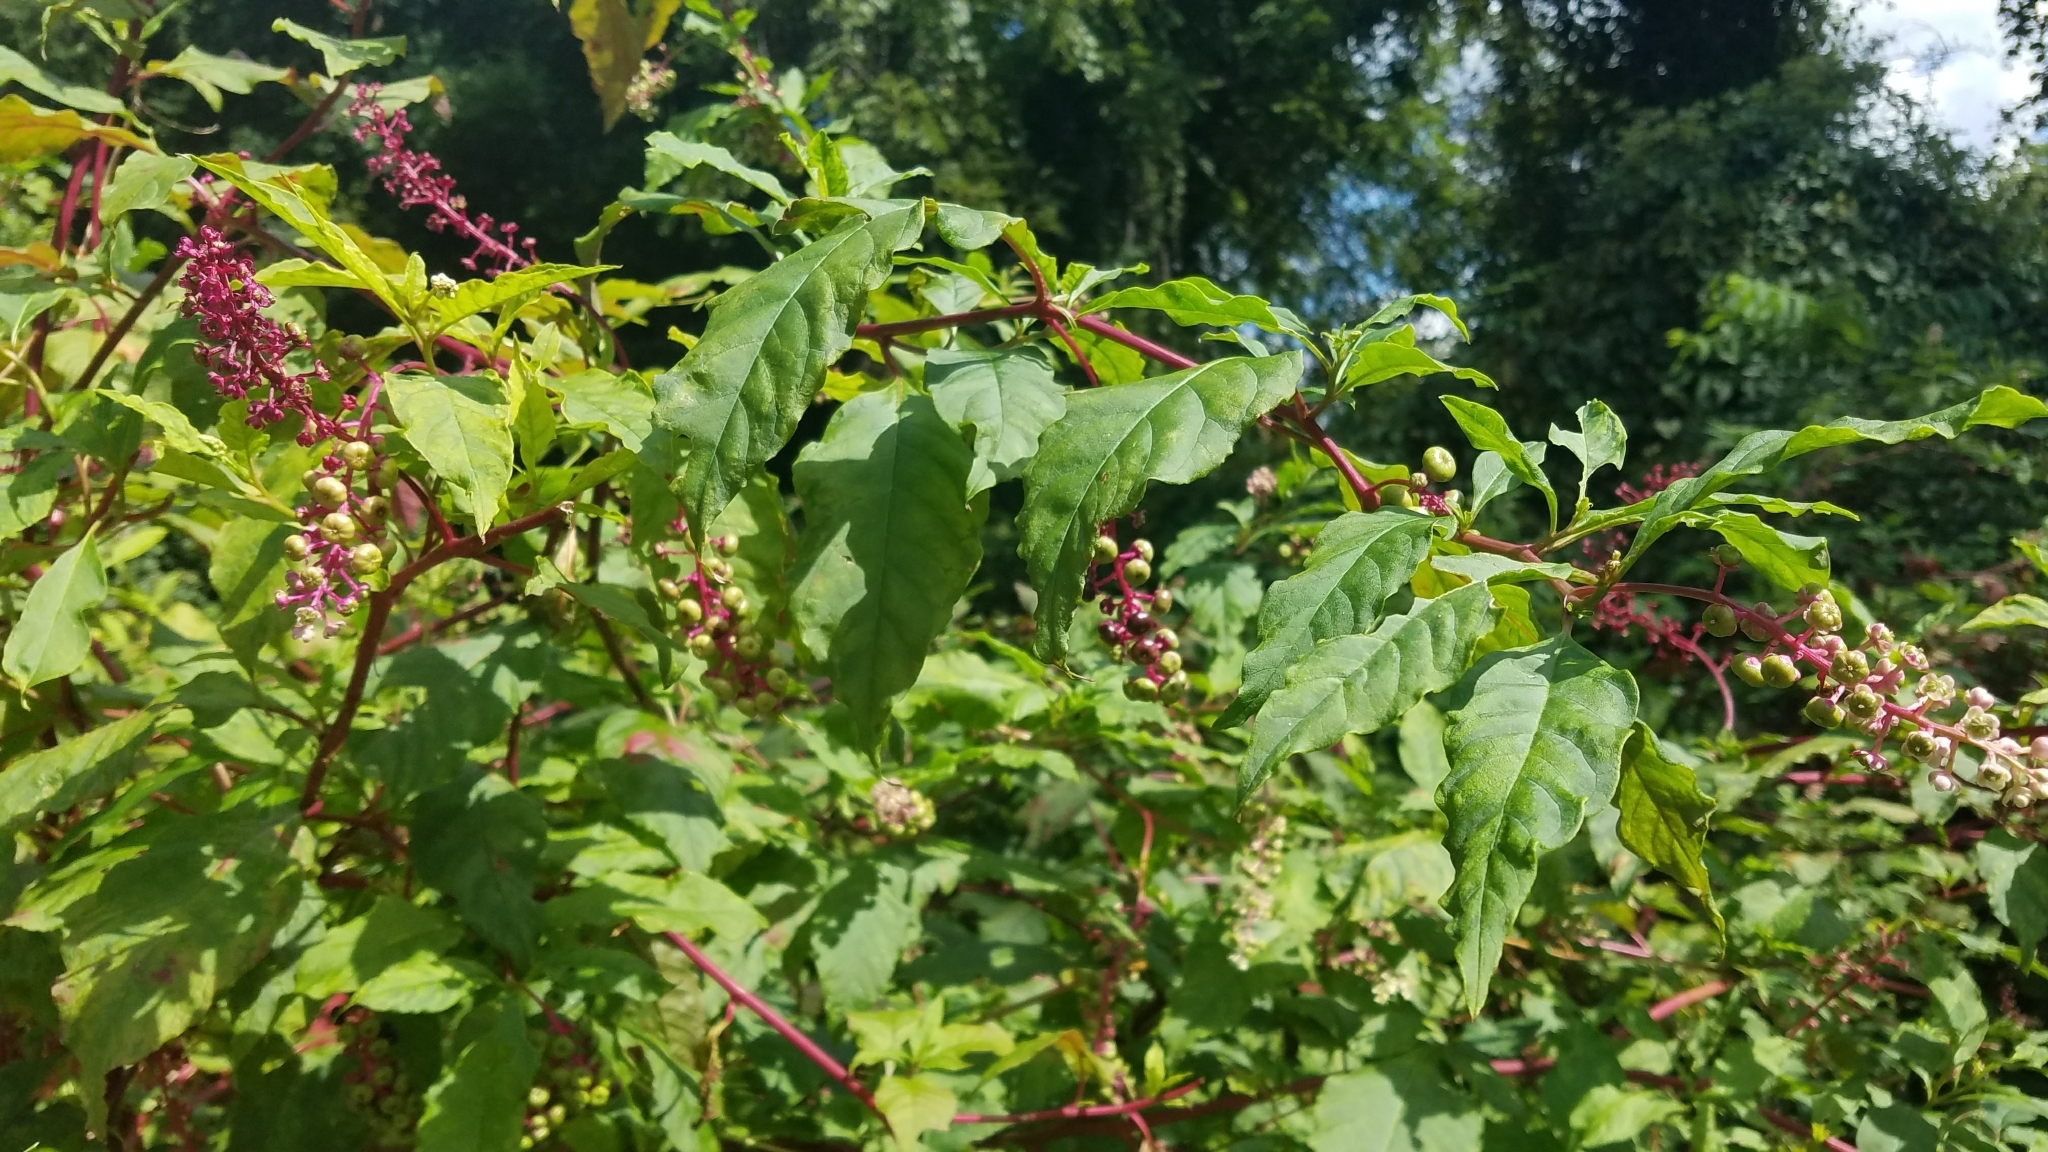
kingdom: Plantae
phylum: Tracheophyta
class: Magnoliopsida
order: Caryophyllales
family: Phytolaccaceae
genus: Phytolacca
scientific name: Phytolacca americana
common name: American pokeweed
